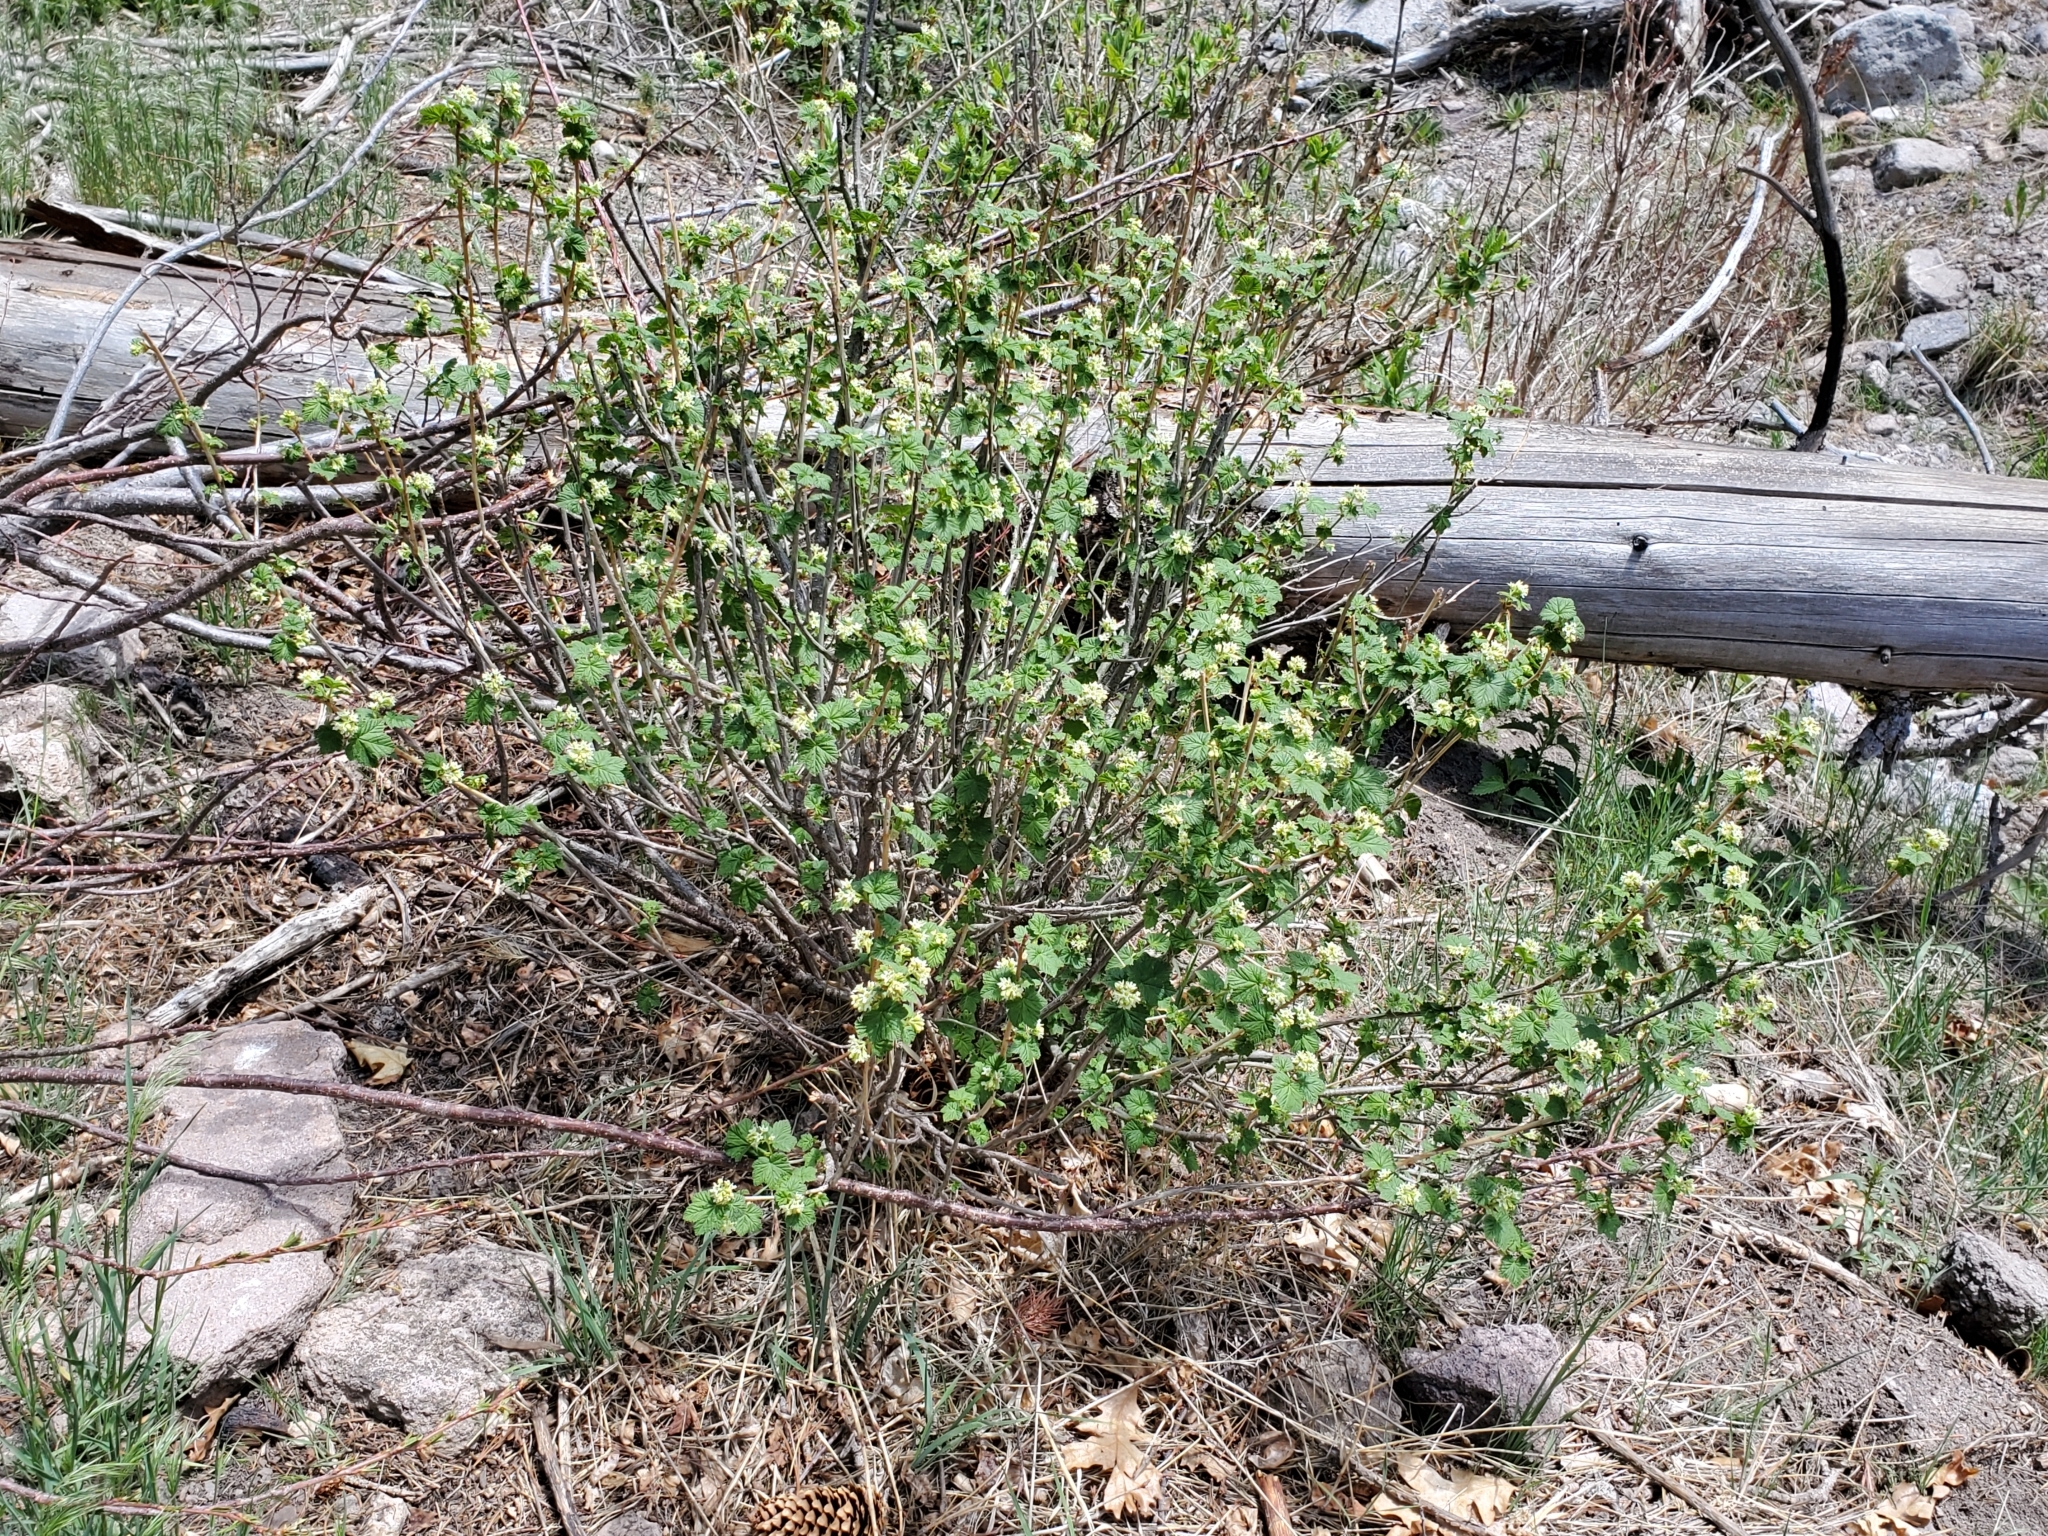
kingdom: Plantae
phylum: Tracheophyta
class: Magnoliopsida
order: Saxifragales
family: Grossulariaceae
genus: Ribes
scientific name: Ribes wolfii
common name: Rothrock currant
